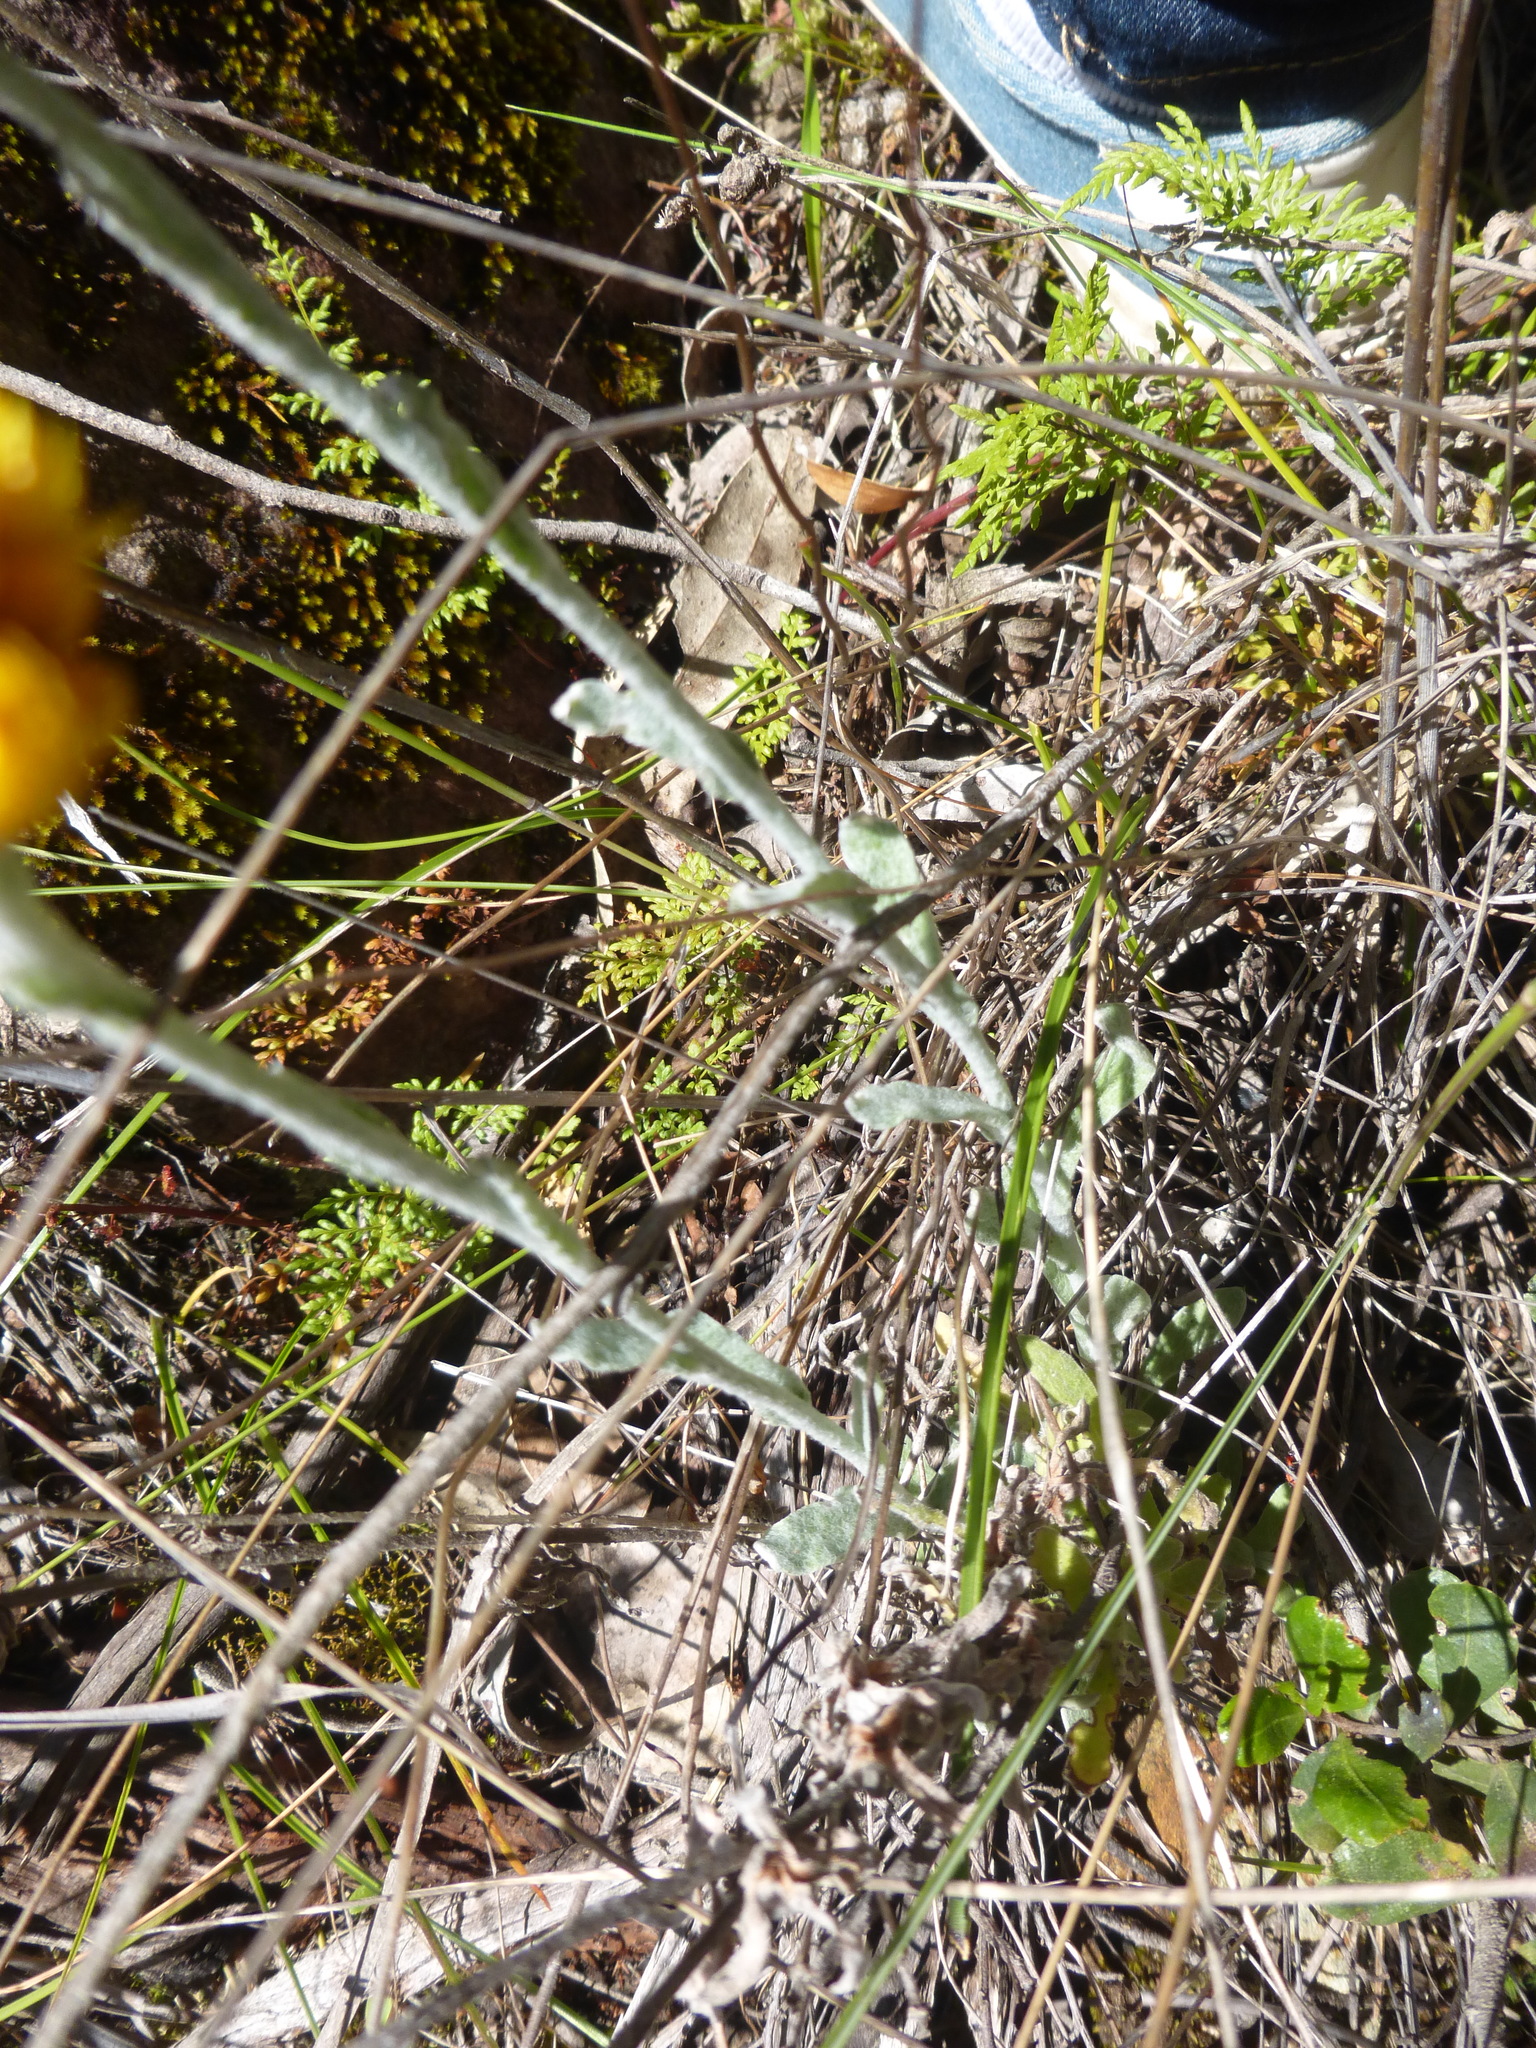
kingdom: Plantae
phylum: Tracheophyta
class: Magnoliopsida
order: Asterales
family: Asteraceae
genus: Chrysocephalum
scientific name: Chrysocephalum apiculatum
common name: Common everlasting
